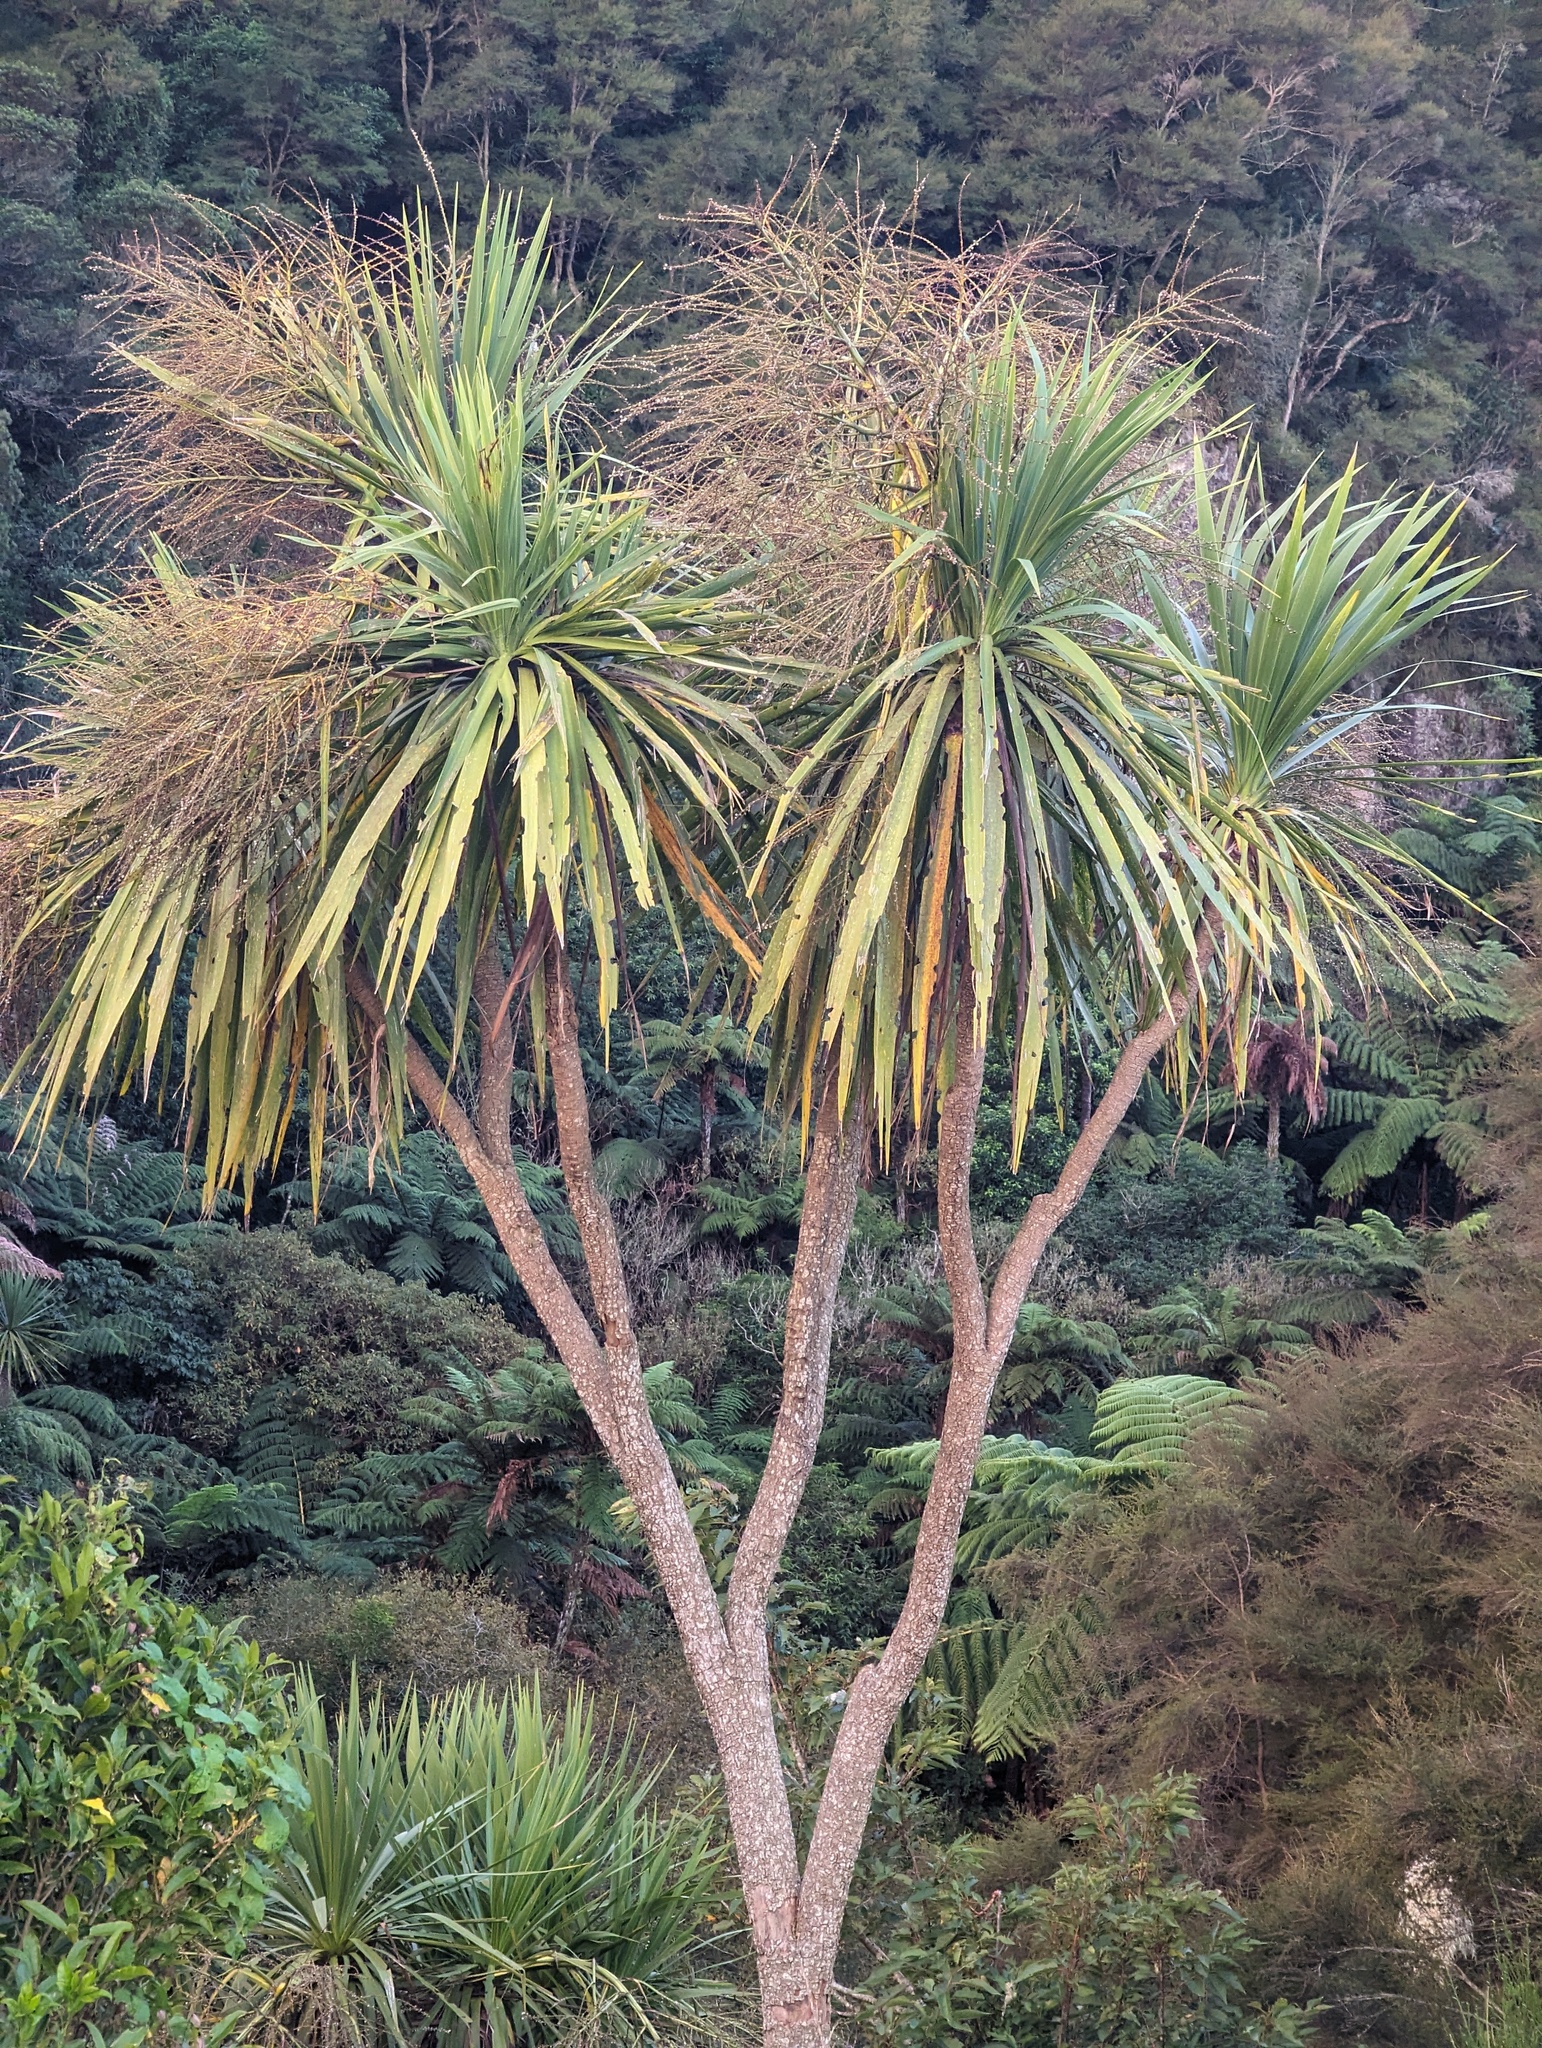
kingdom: Plantae
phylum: Tracheophyta
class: Liliopsida
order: Asparagales
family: Asparagaceae
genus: Cordyline
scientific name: Cordyline australis
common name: Cabbage-palm
